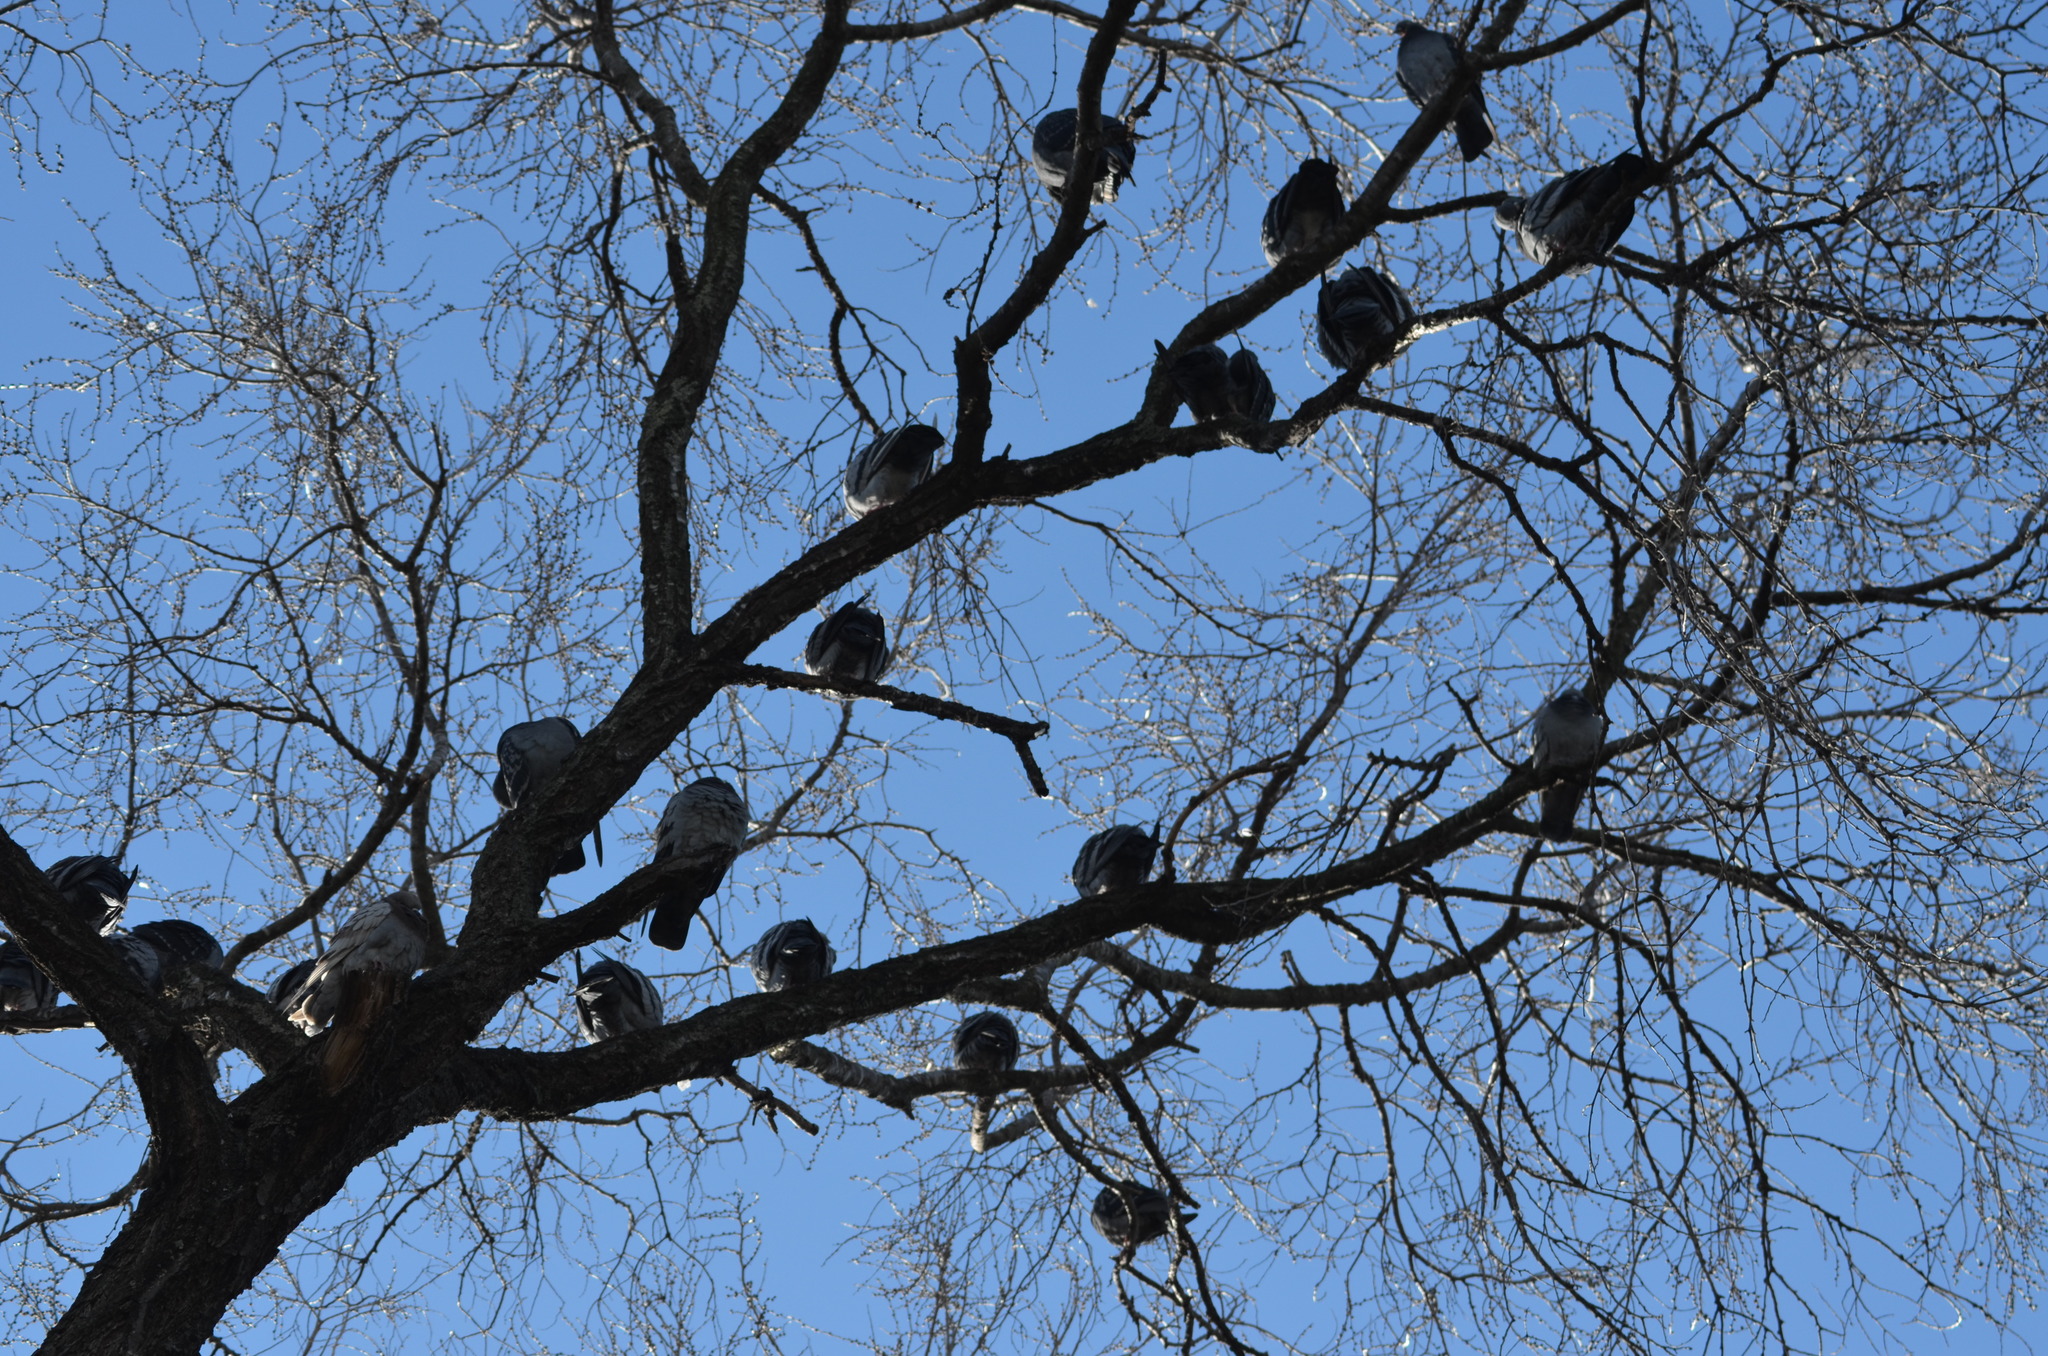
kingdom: Animalia
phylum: Chordata
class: Aves
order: Columbiformes
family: Columbidae
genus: Columba
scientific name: Columba livia
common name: Rock pigeon
